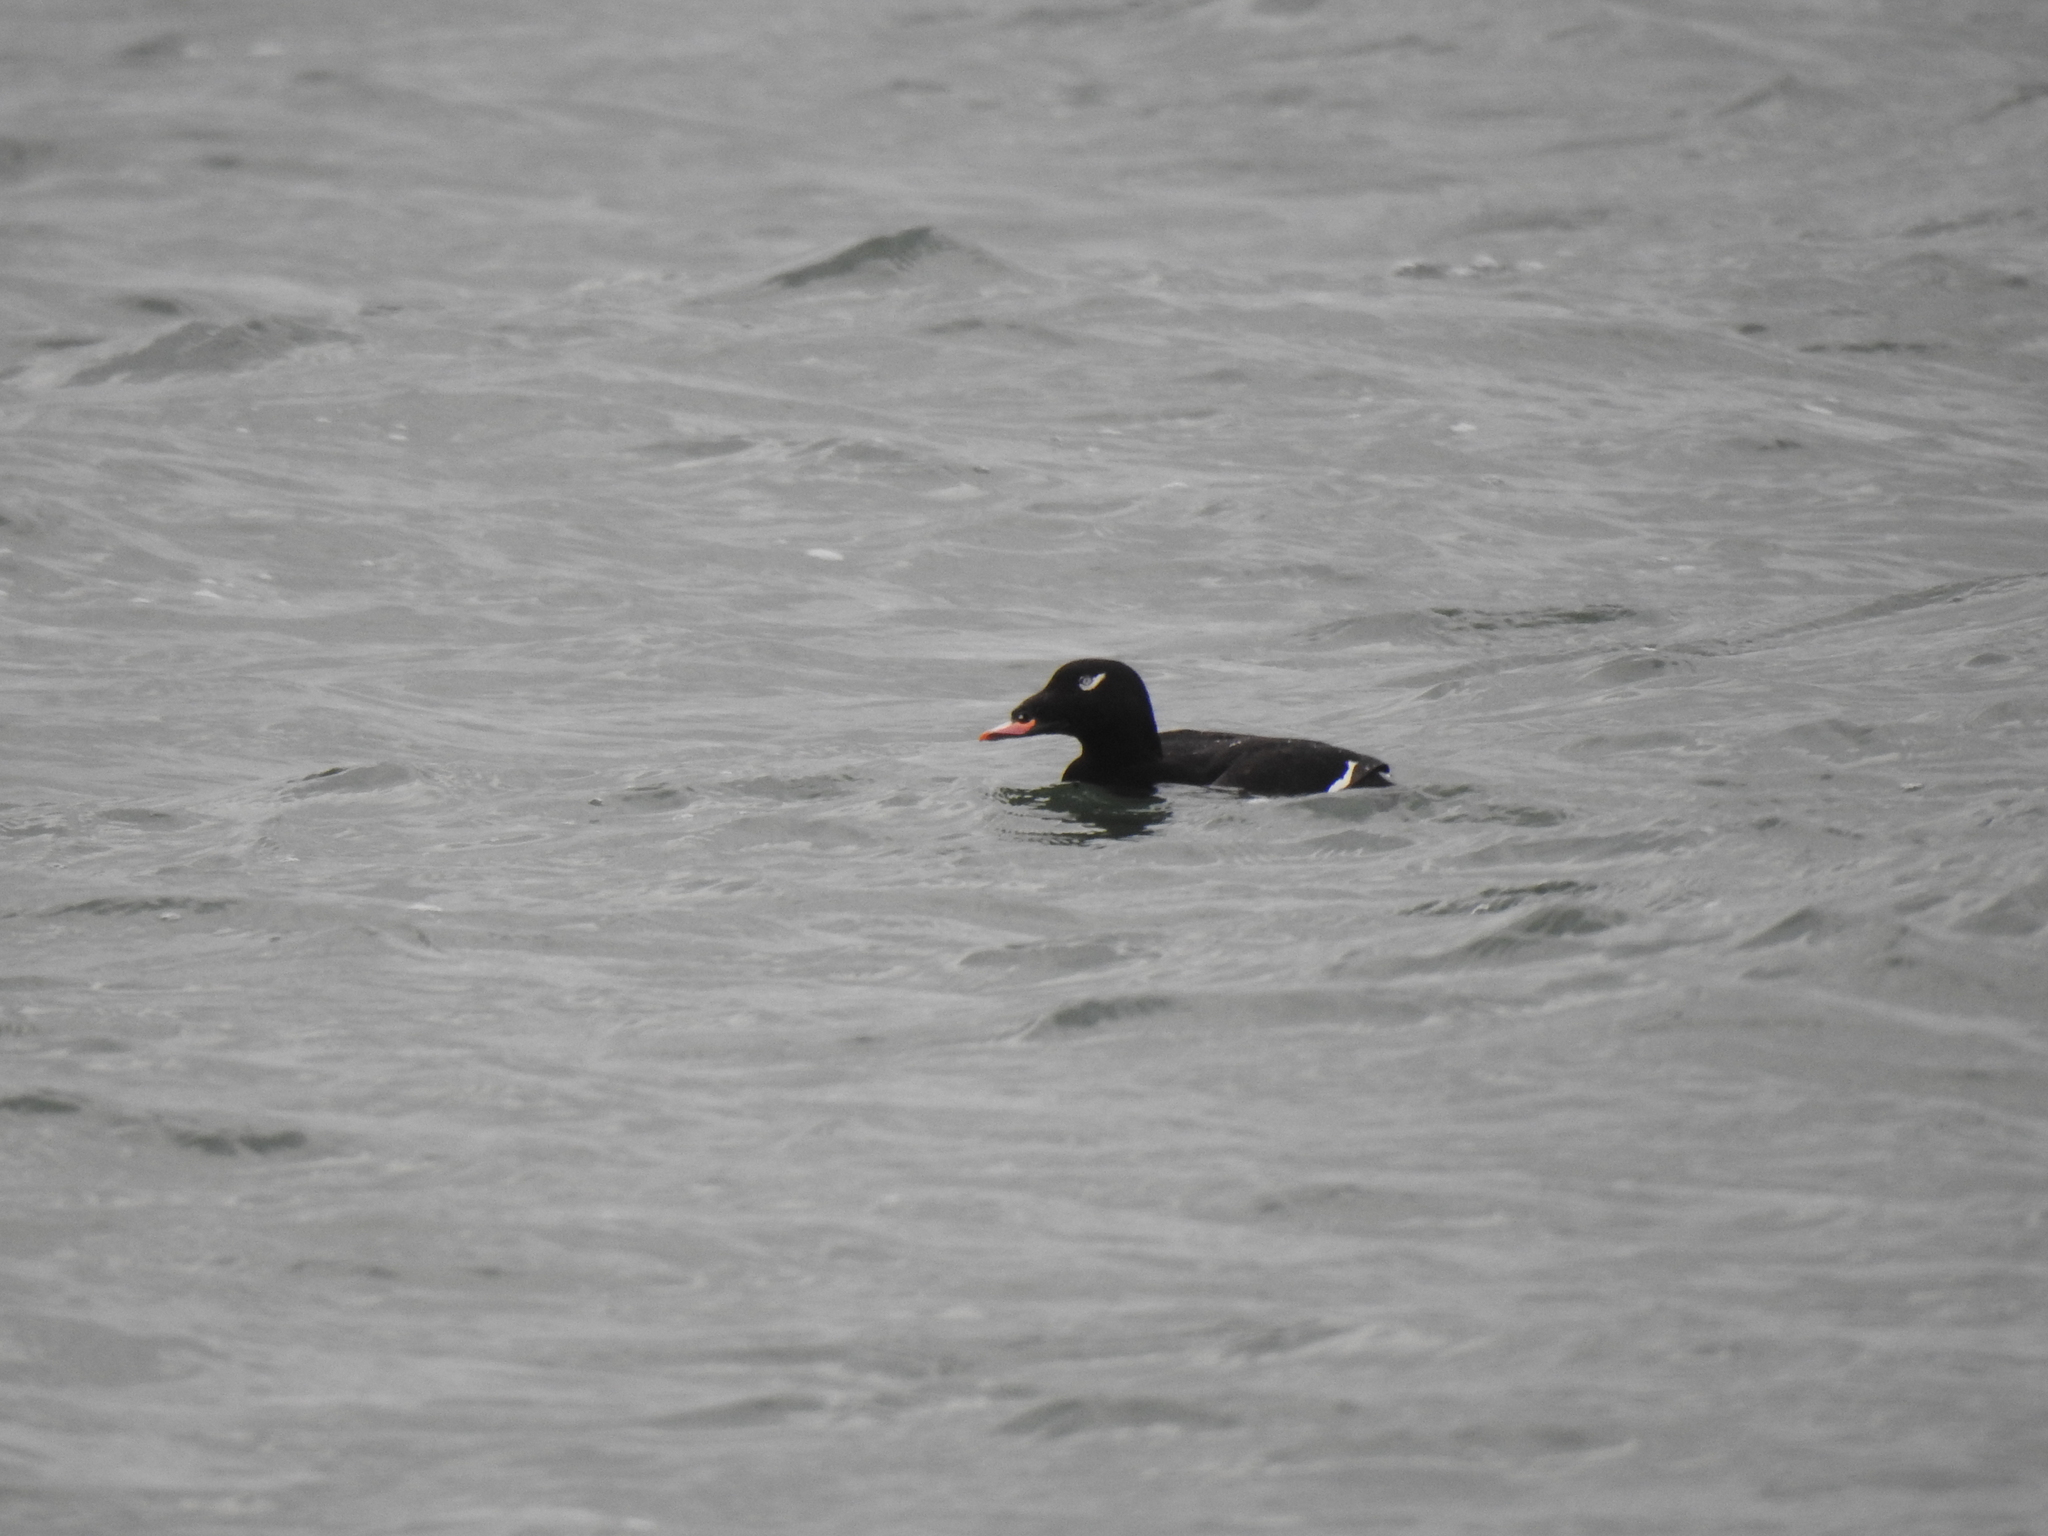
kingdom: Animalia
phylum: Chordata
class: Aves
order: Anseriformes
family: Anatidae
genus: Melanitta
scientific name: Melanitta deglandi
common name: White-winged scoter
